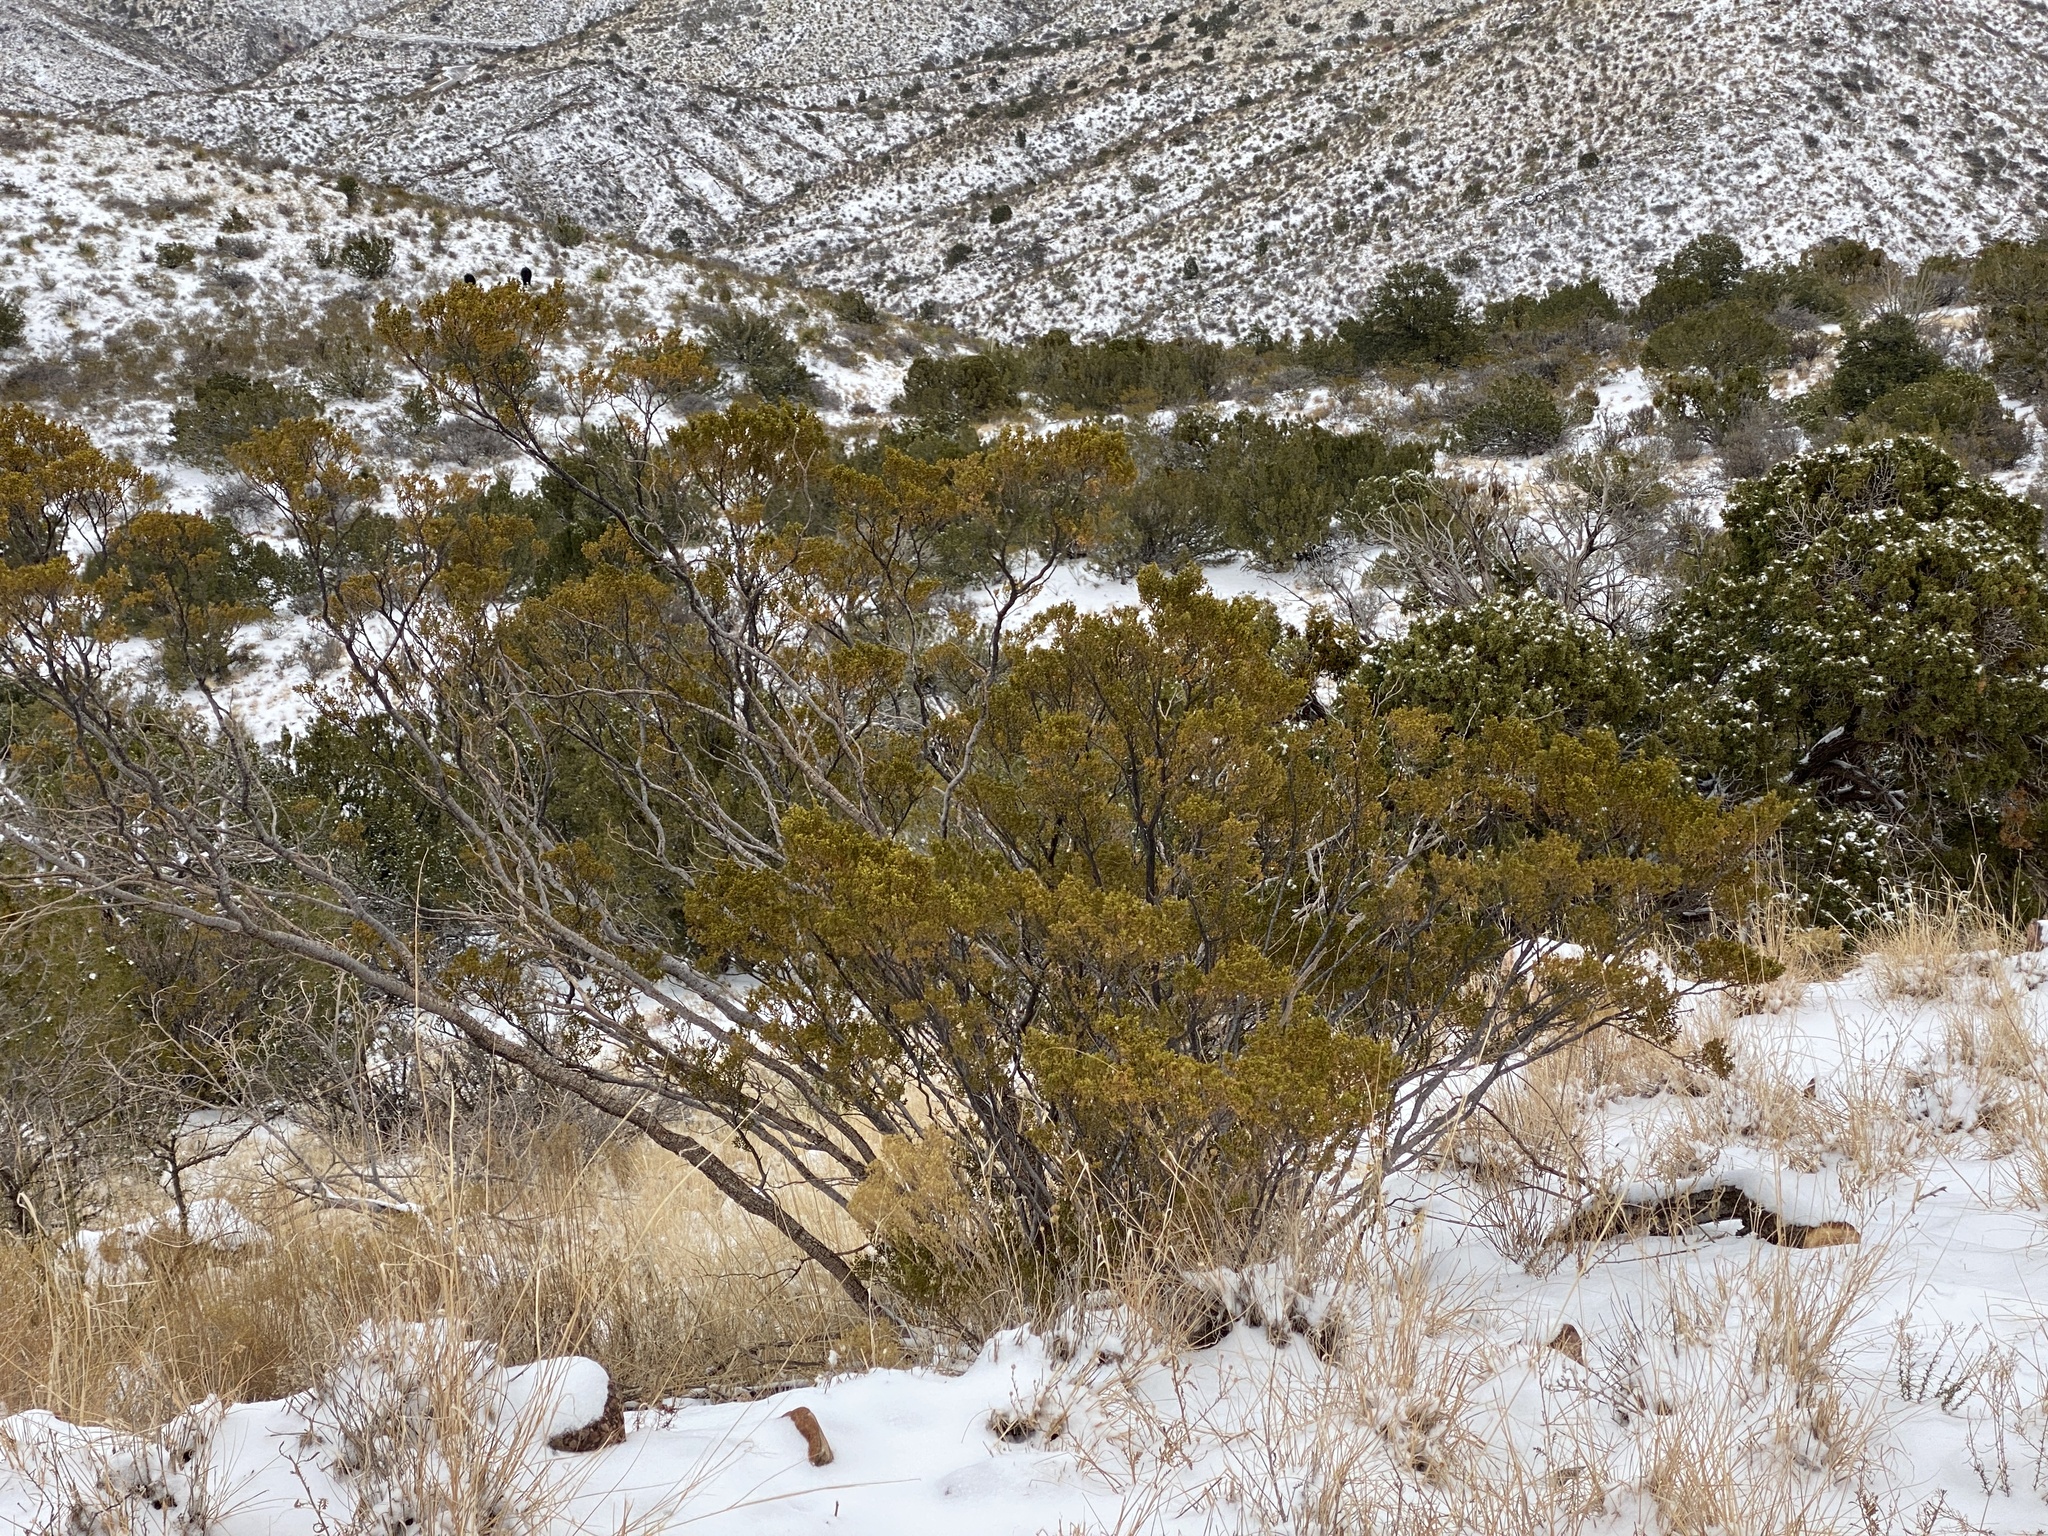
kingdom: Plantae
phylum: Tracheophyta
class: Magnoliopsida
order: Zygophyllales
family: Zygophyllaceae
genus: Larrea
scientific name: Larrea tridentata
